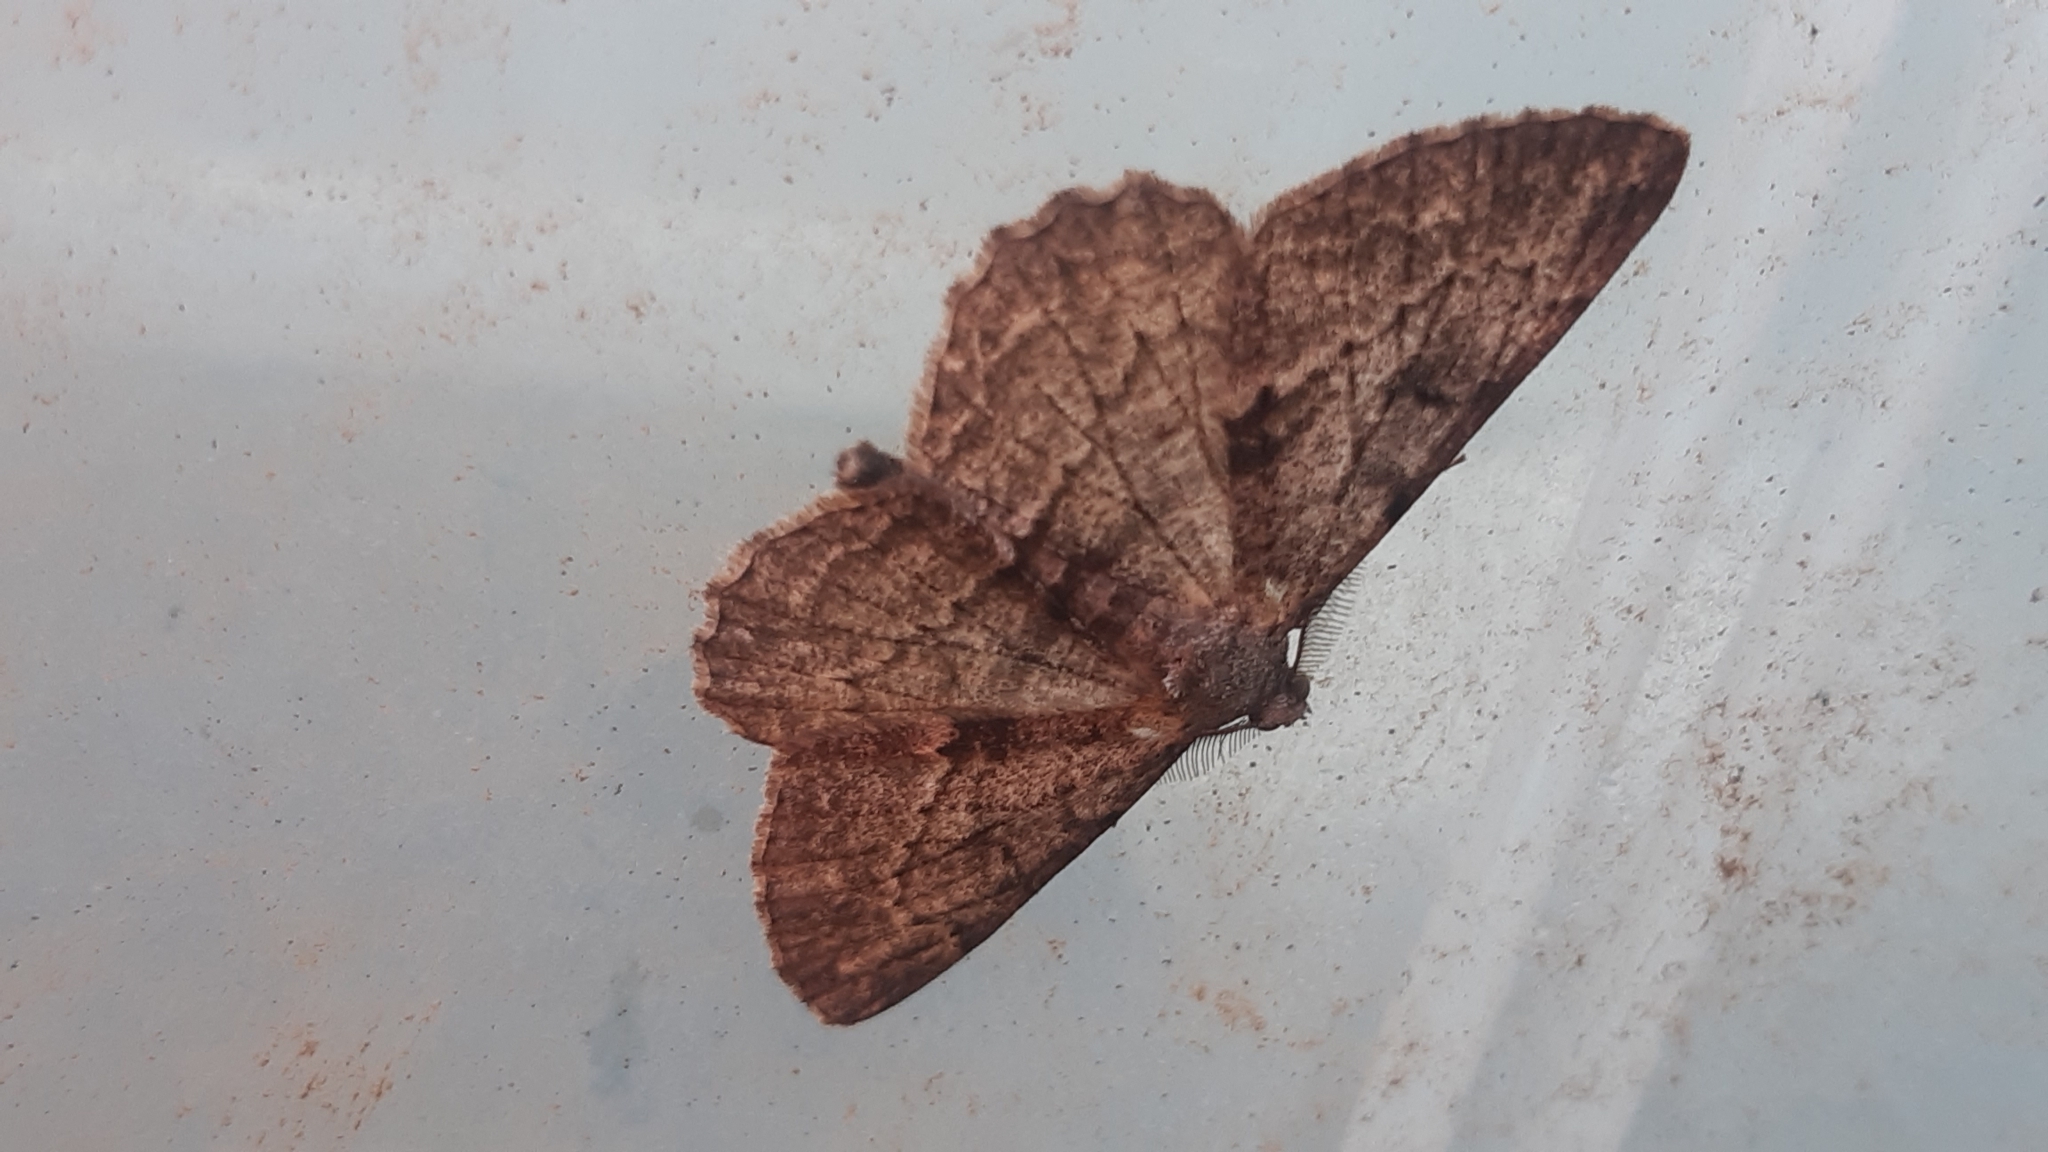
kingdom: Animalia
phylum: Arthropoda
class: Insecta
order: Lepidoptera
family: Geometridae
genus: Peribatodes
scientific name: Peribatodes rhomboidaria
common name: Willow beauty
